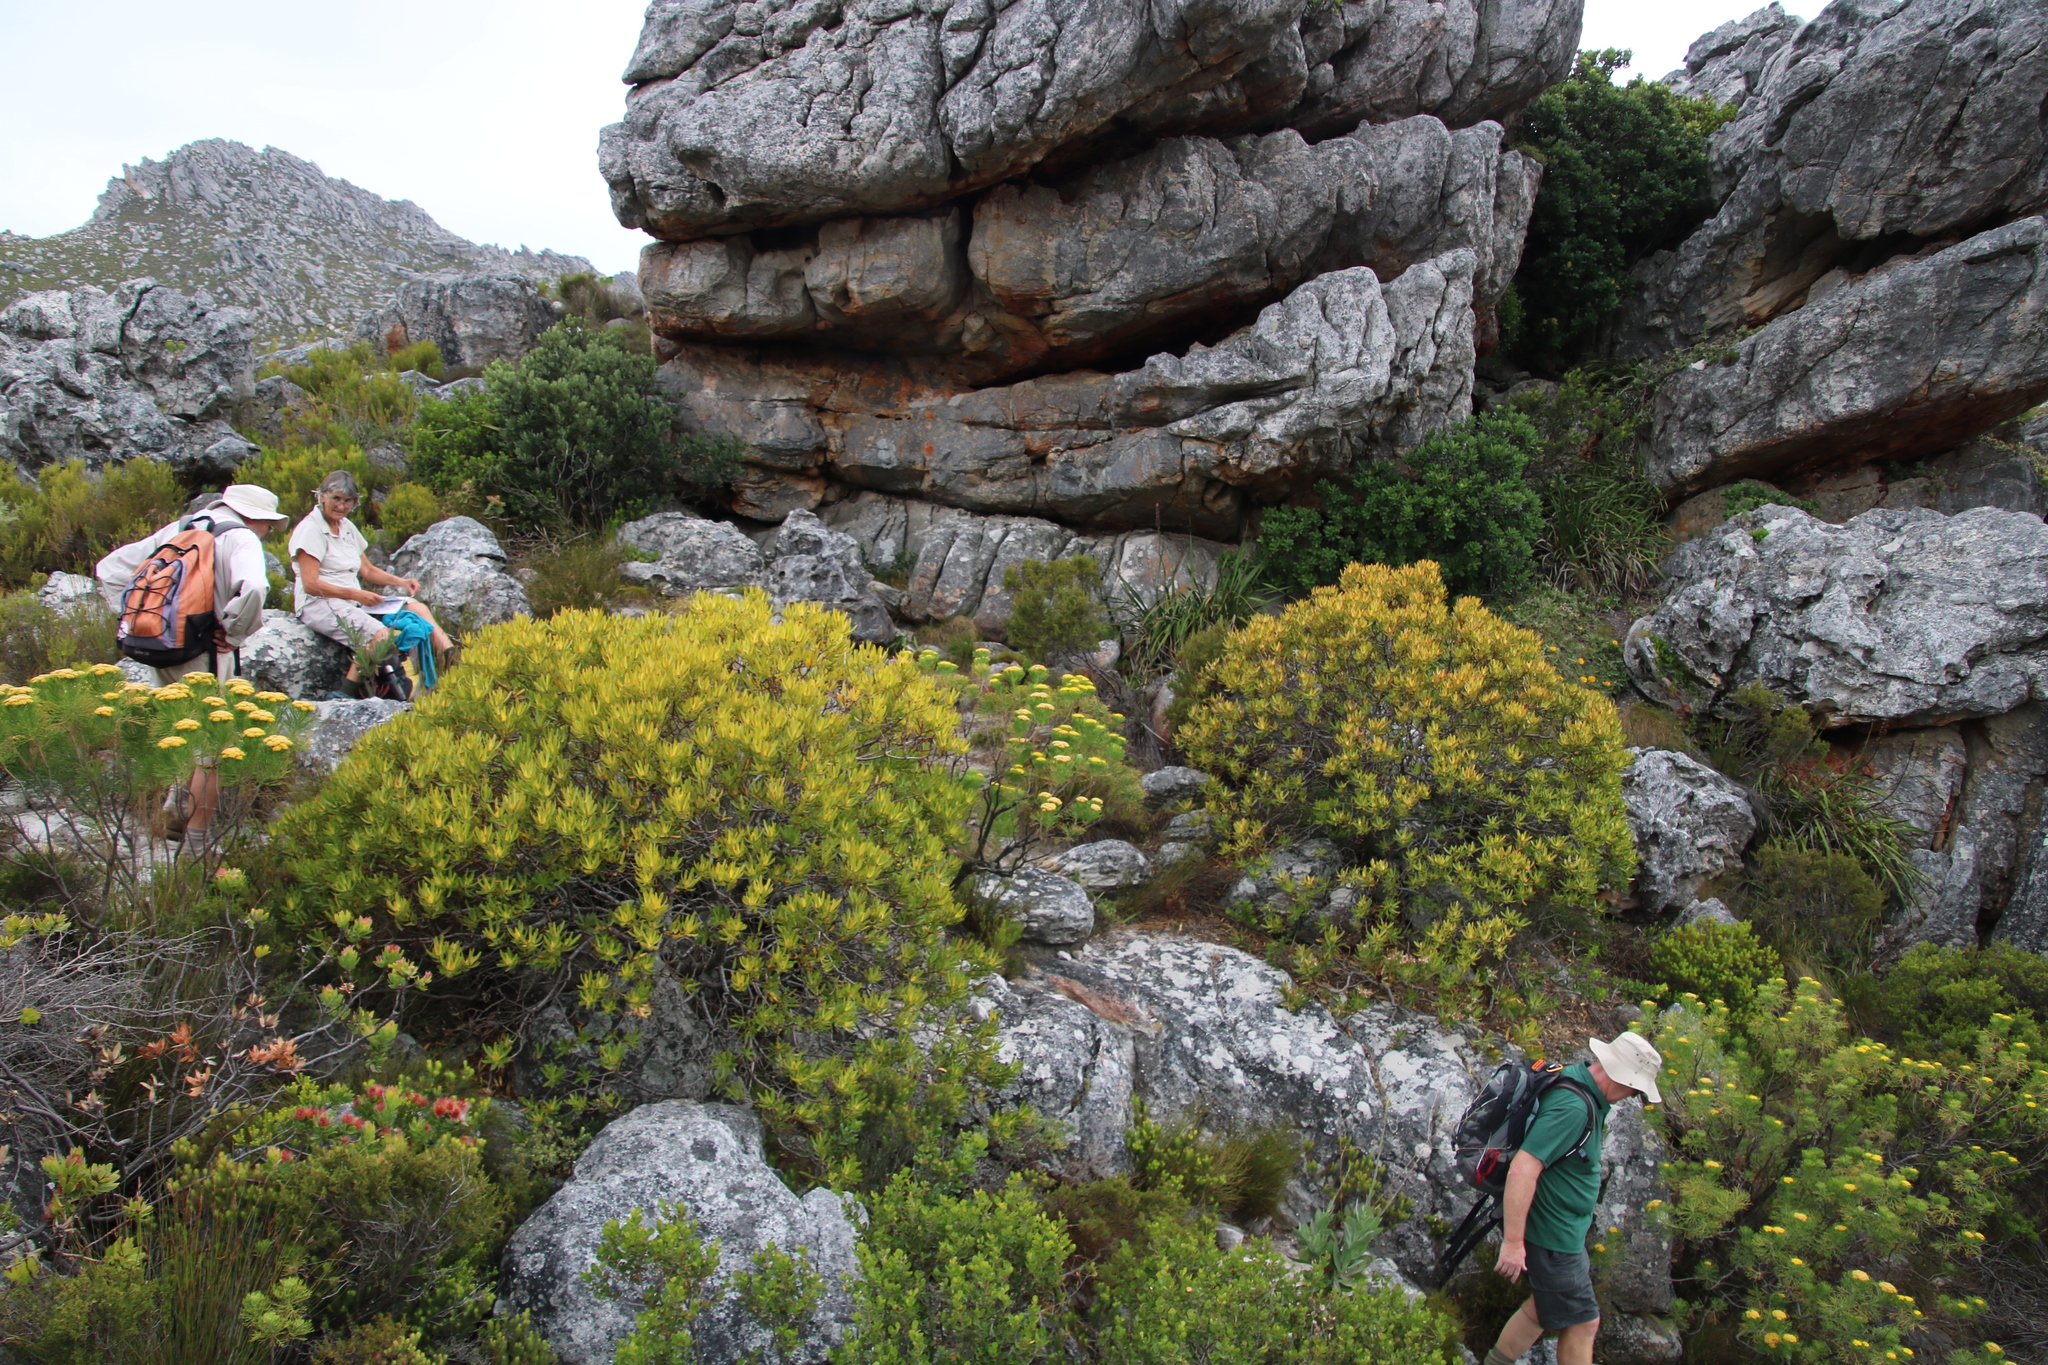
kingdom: Plantae
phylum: Tracheophyta
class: Magnoliopsida
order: Proteales
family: Proteaceae
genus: Leucadendron
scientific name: Leucadendron laureolum
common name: Golden sunshinebush
